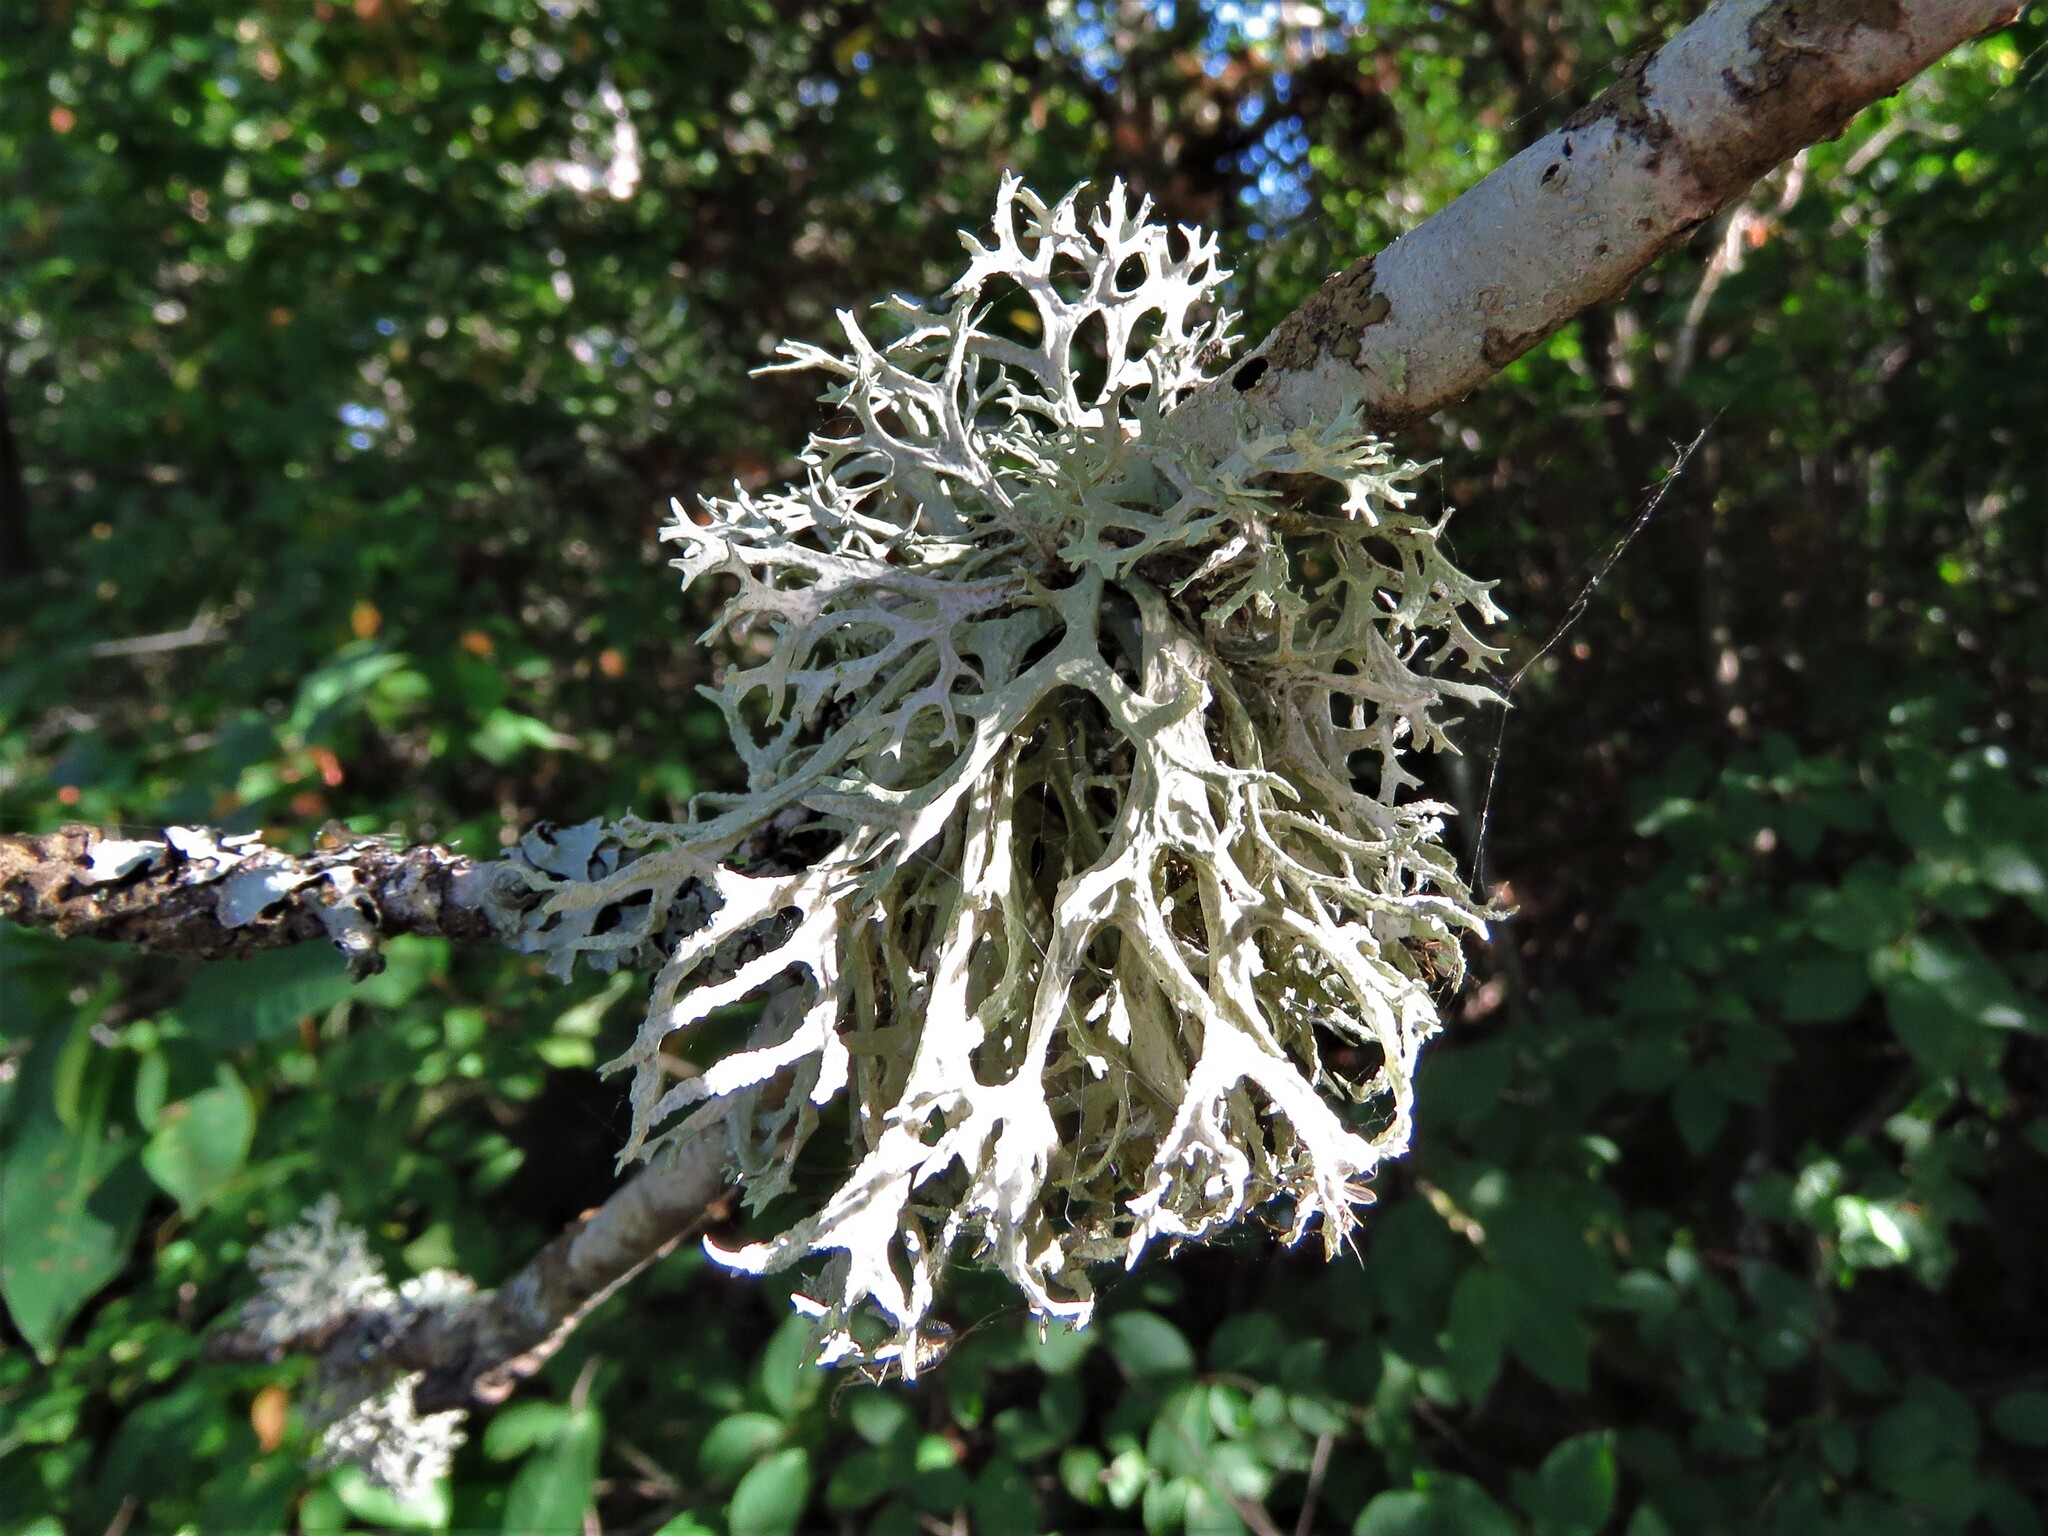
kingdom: Fungi
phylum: Ascomycota
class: Lecanoromycetes
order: Lecanorales
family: Parmeliaceae
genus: Evernia
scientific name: Evernia prunastri
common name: Oak moss
